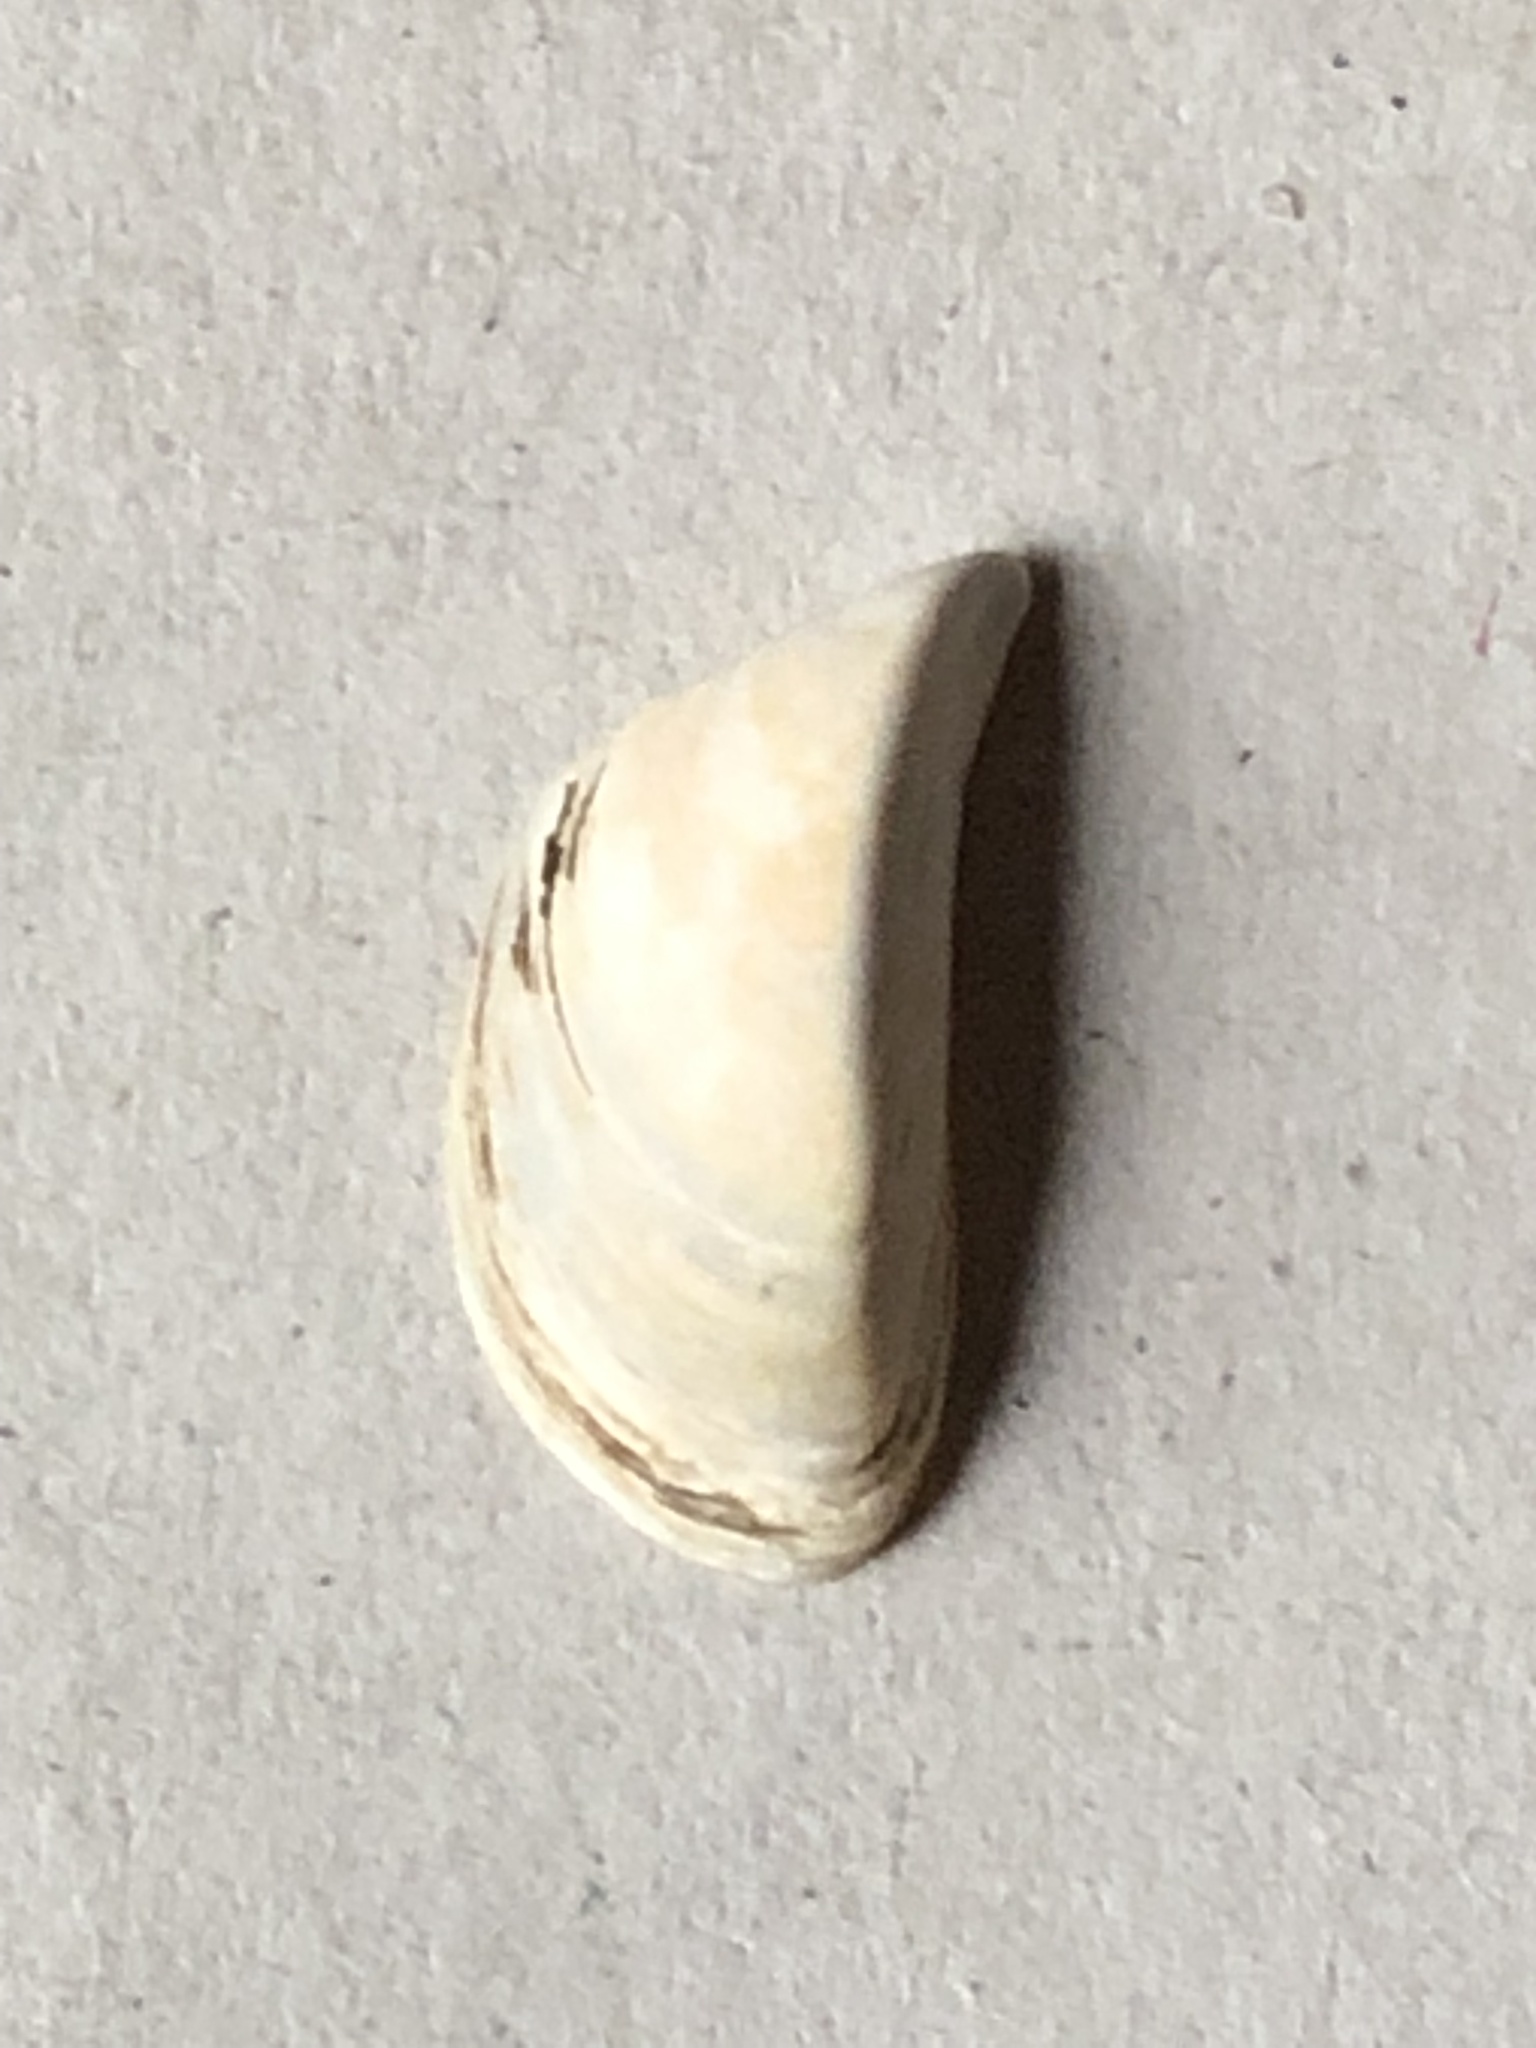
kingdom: Animalia
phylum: Mollusca
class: Bivalvia
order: Myida
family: Dreissenidae
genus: Dreissena
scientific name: Dreissena polymorpha
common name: Zebra mussel
